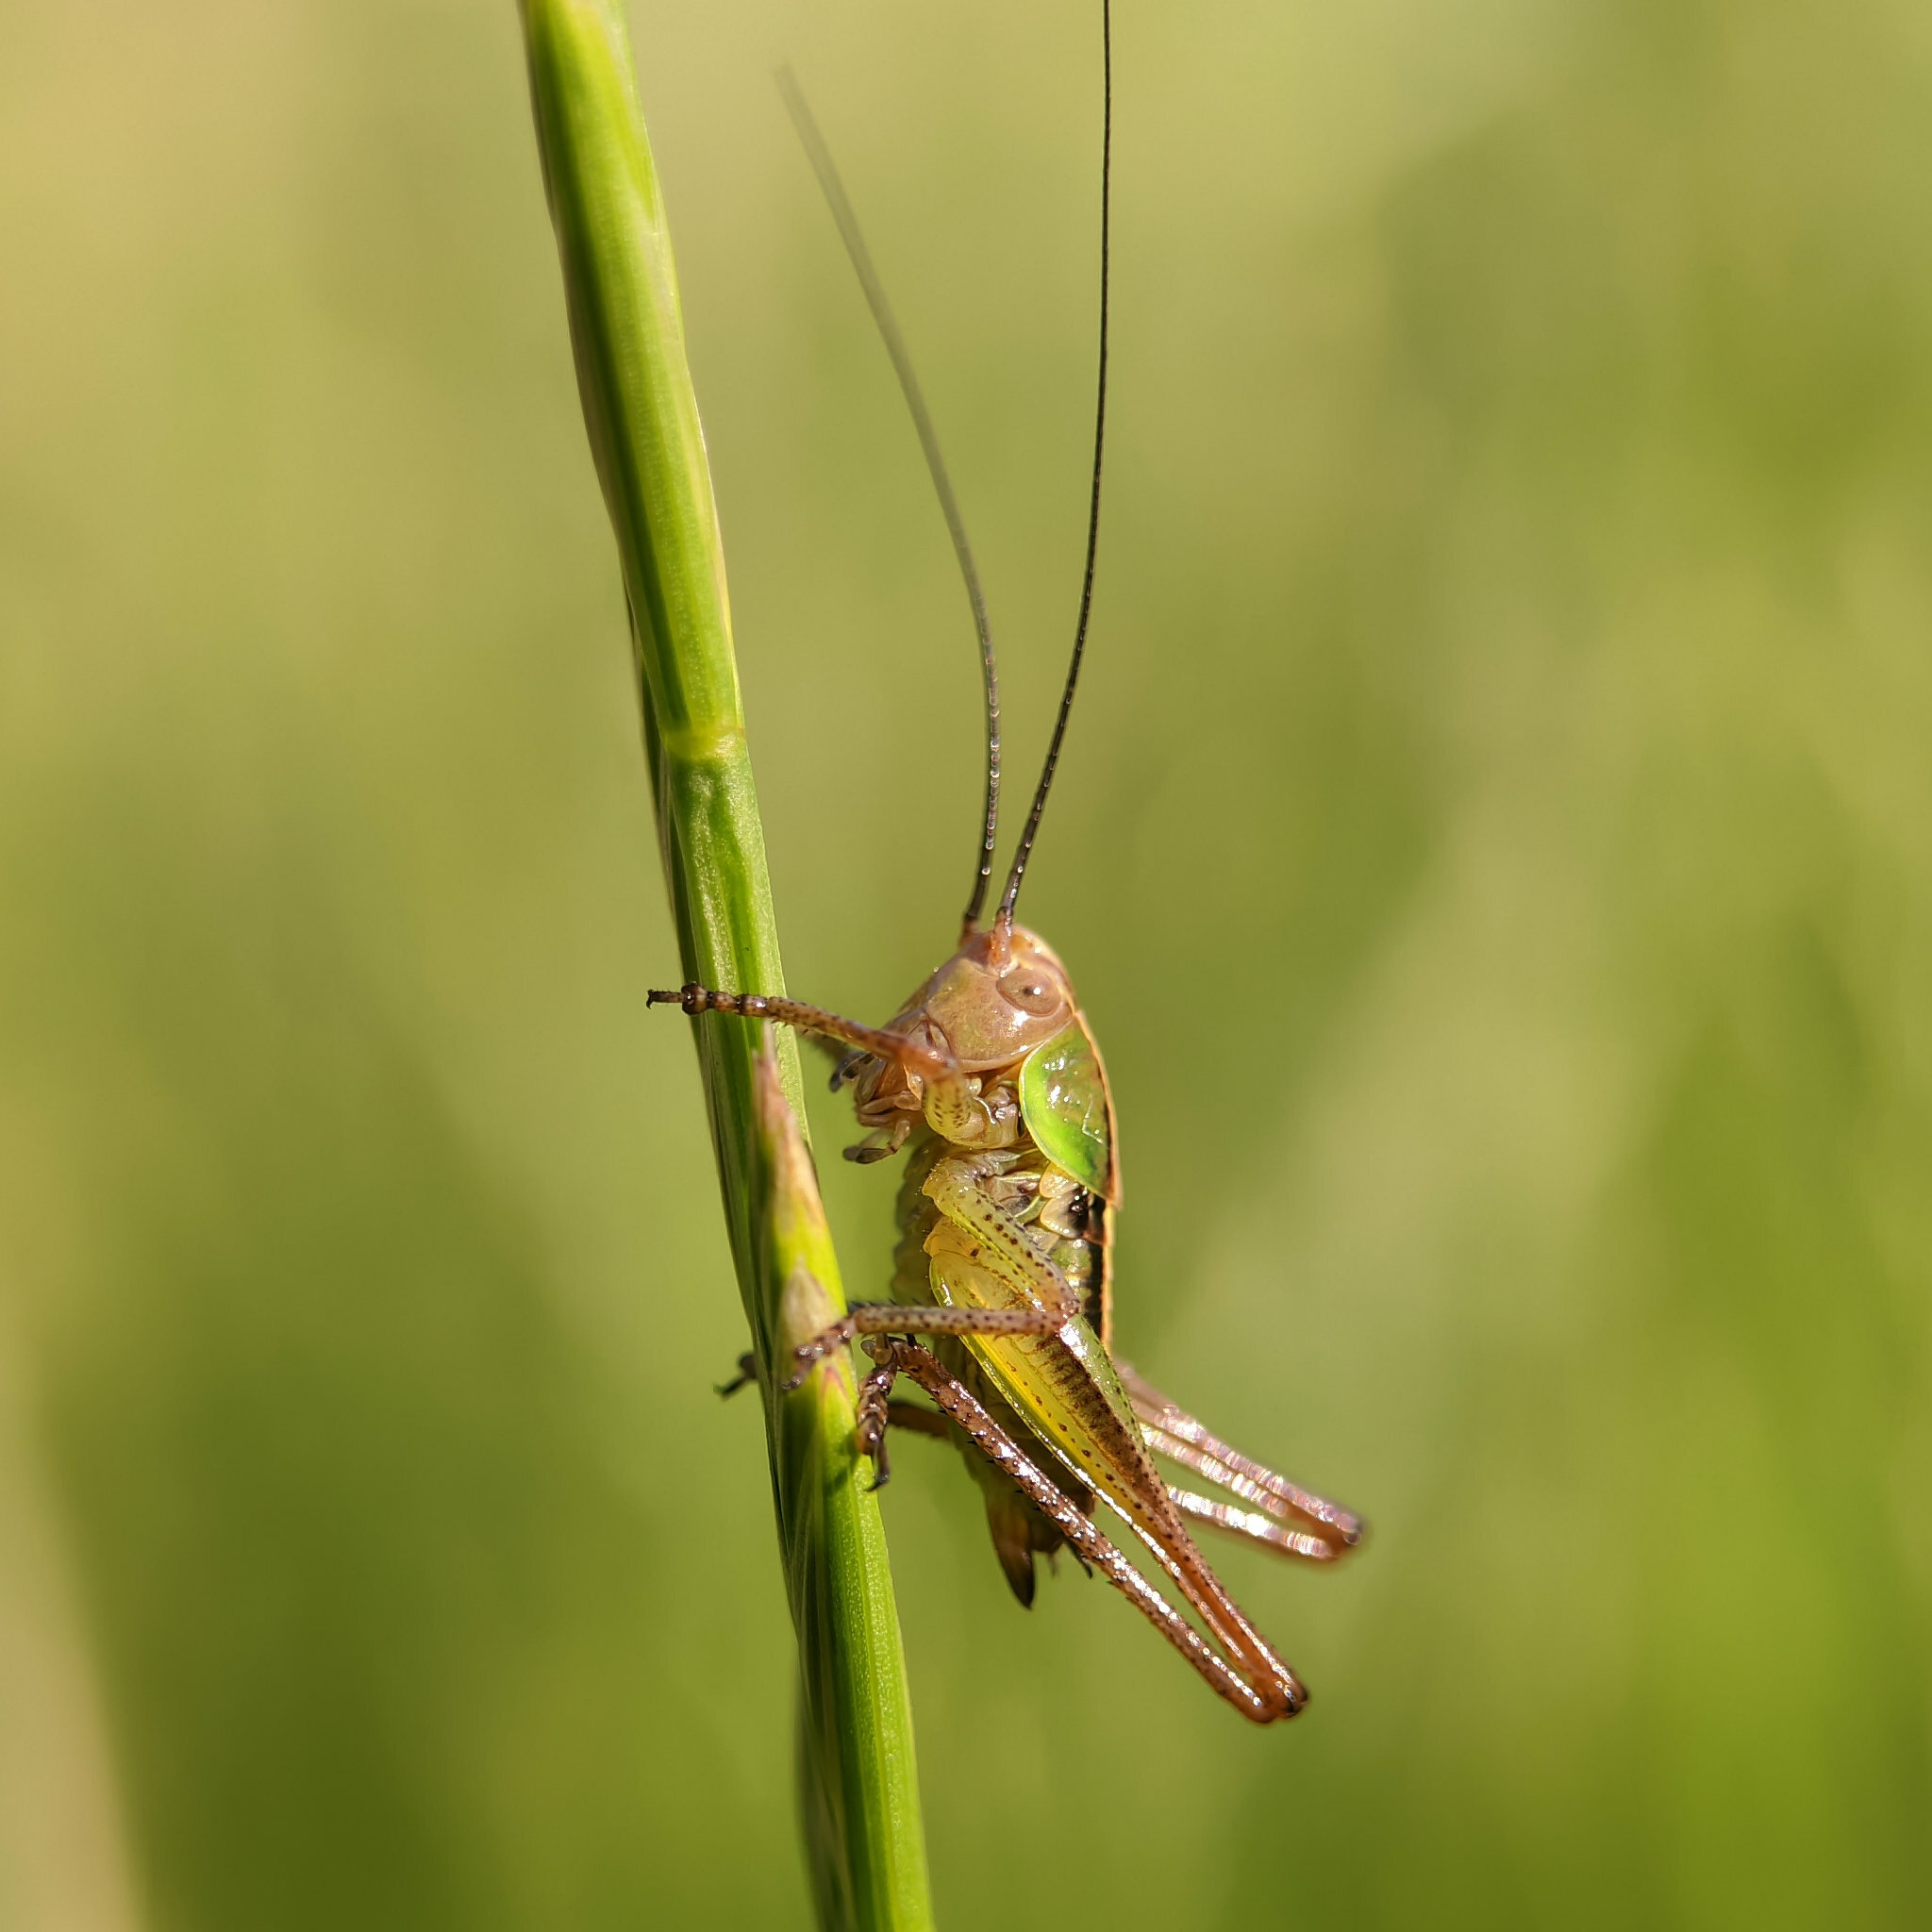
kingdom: Animalia
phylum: Arthropoda
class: Insecta
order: Orthoptera
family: Tettigoniidae
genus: Roeseliana
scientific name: Roeseliana roeselii
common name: Roesel's bush cricket
